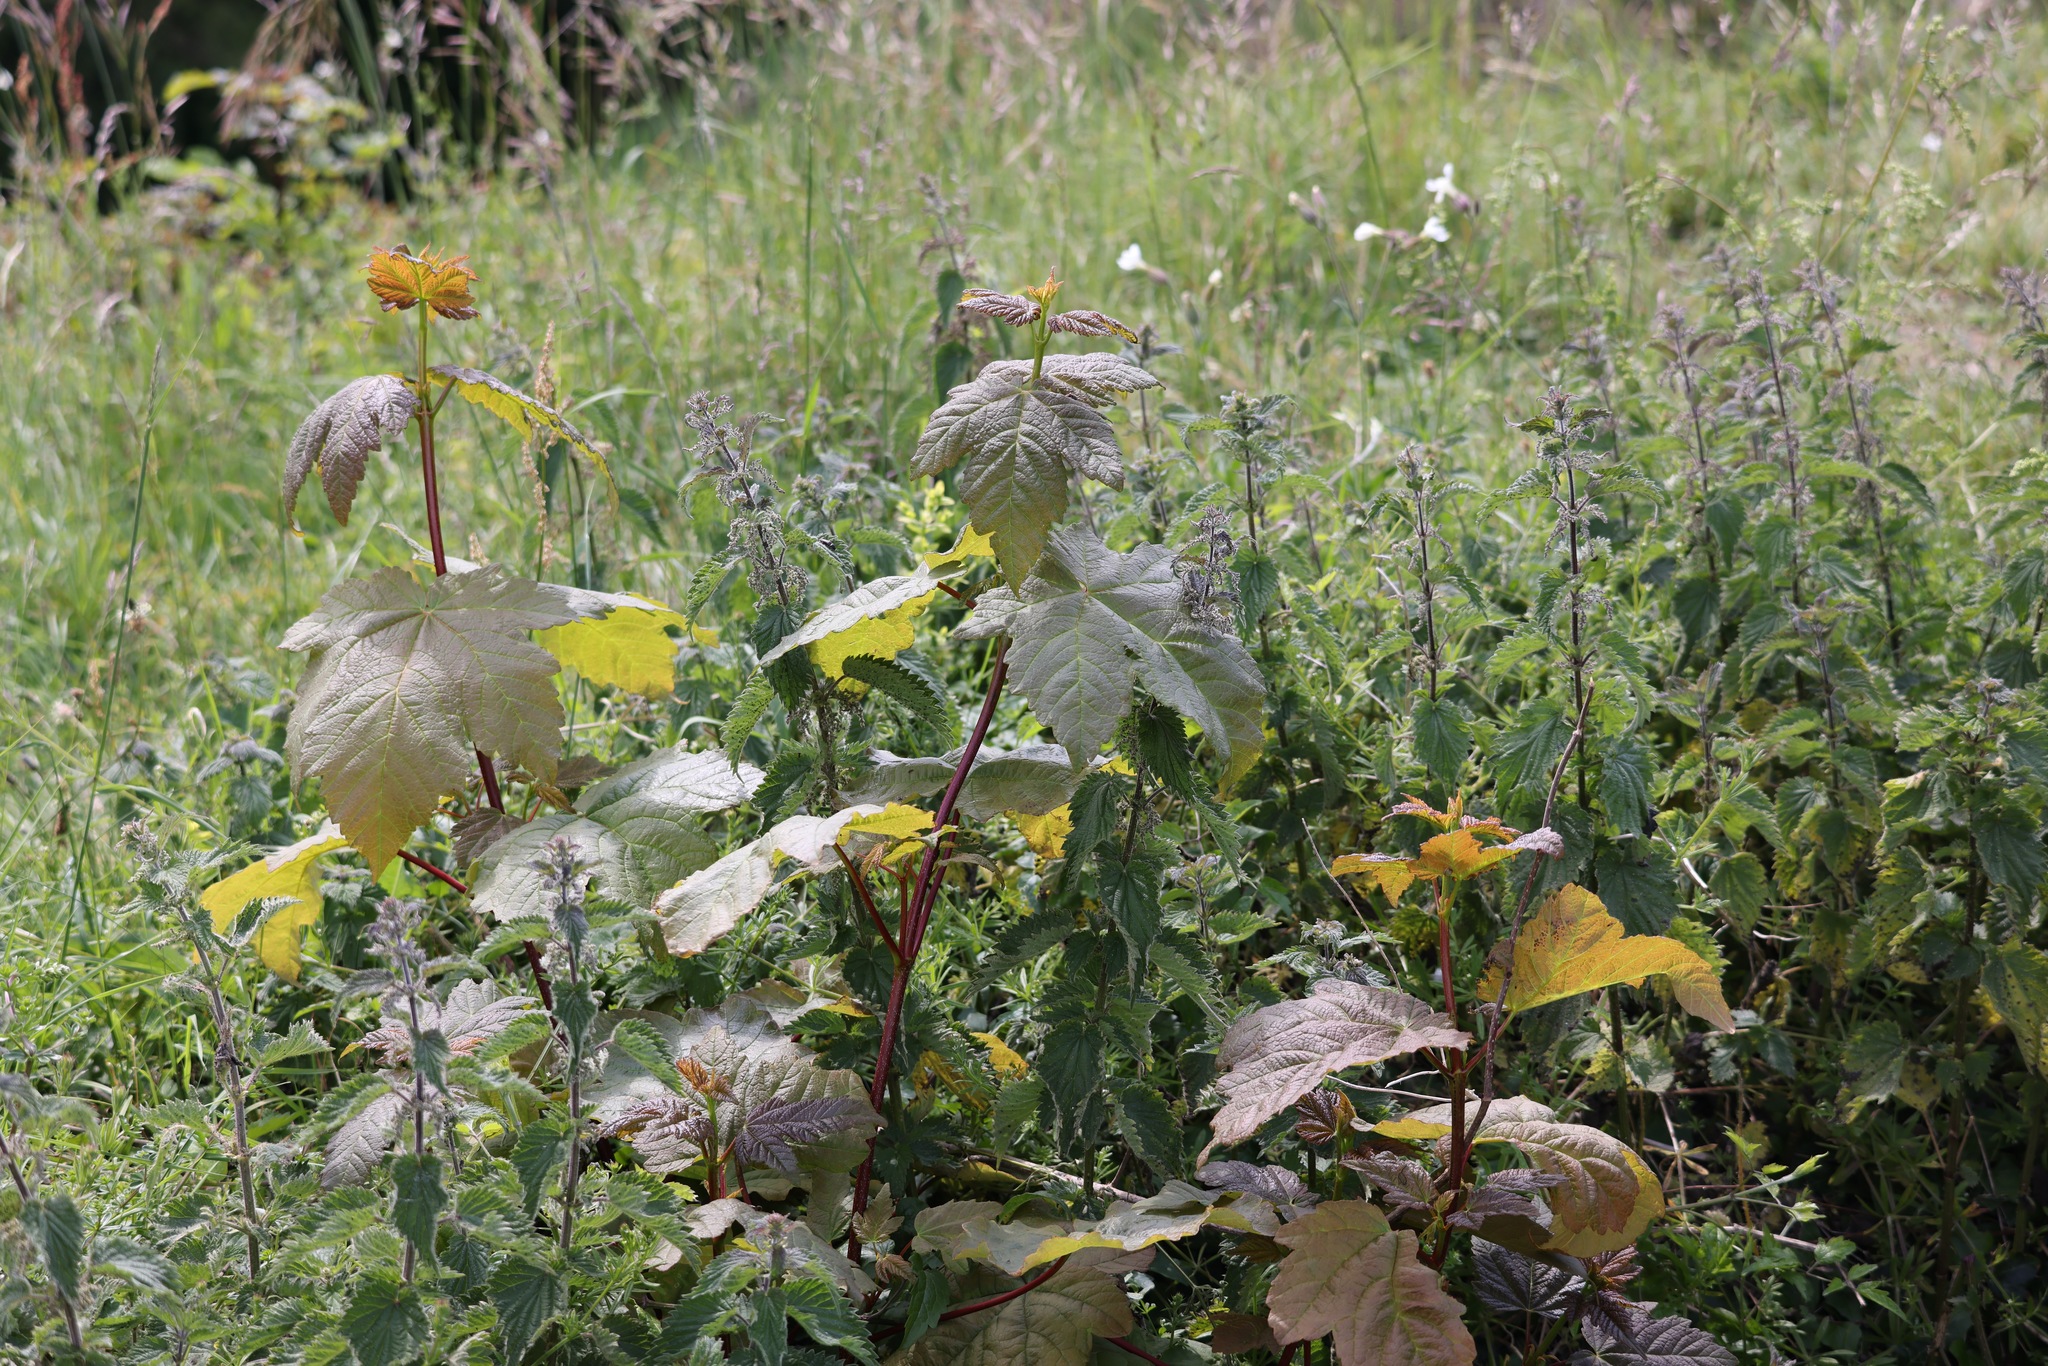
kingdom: Plantae
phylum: Tracheophyta
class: Magnoliopsida
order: Sapindales
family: Sapindaceae
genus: Acer
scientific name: Acer pseudoplatanus
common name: Sycamore
